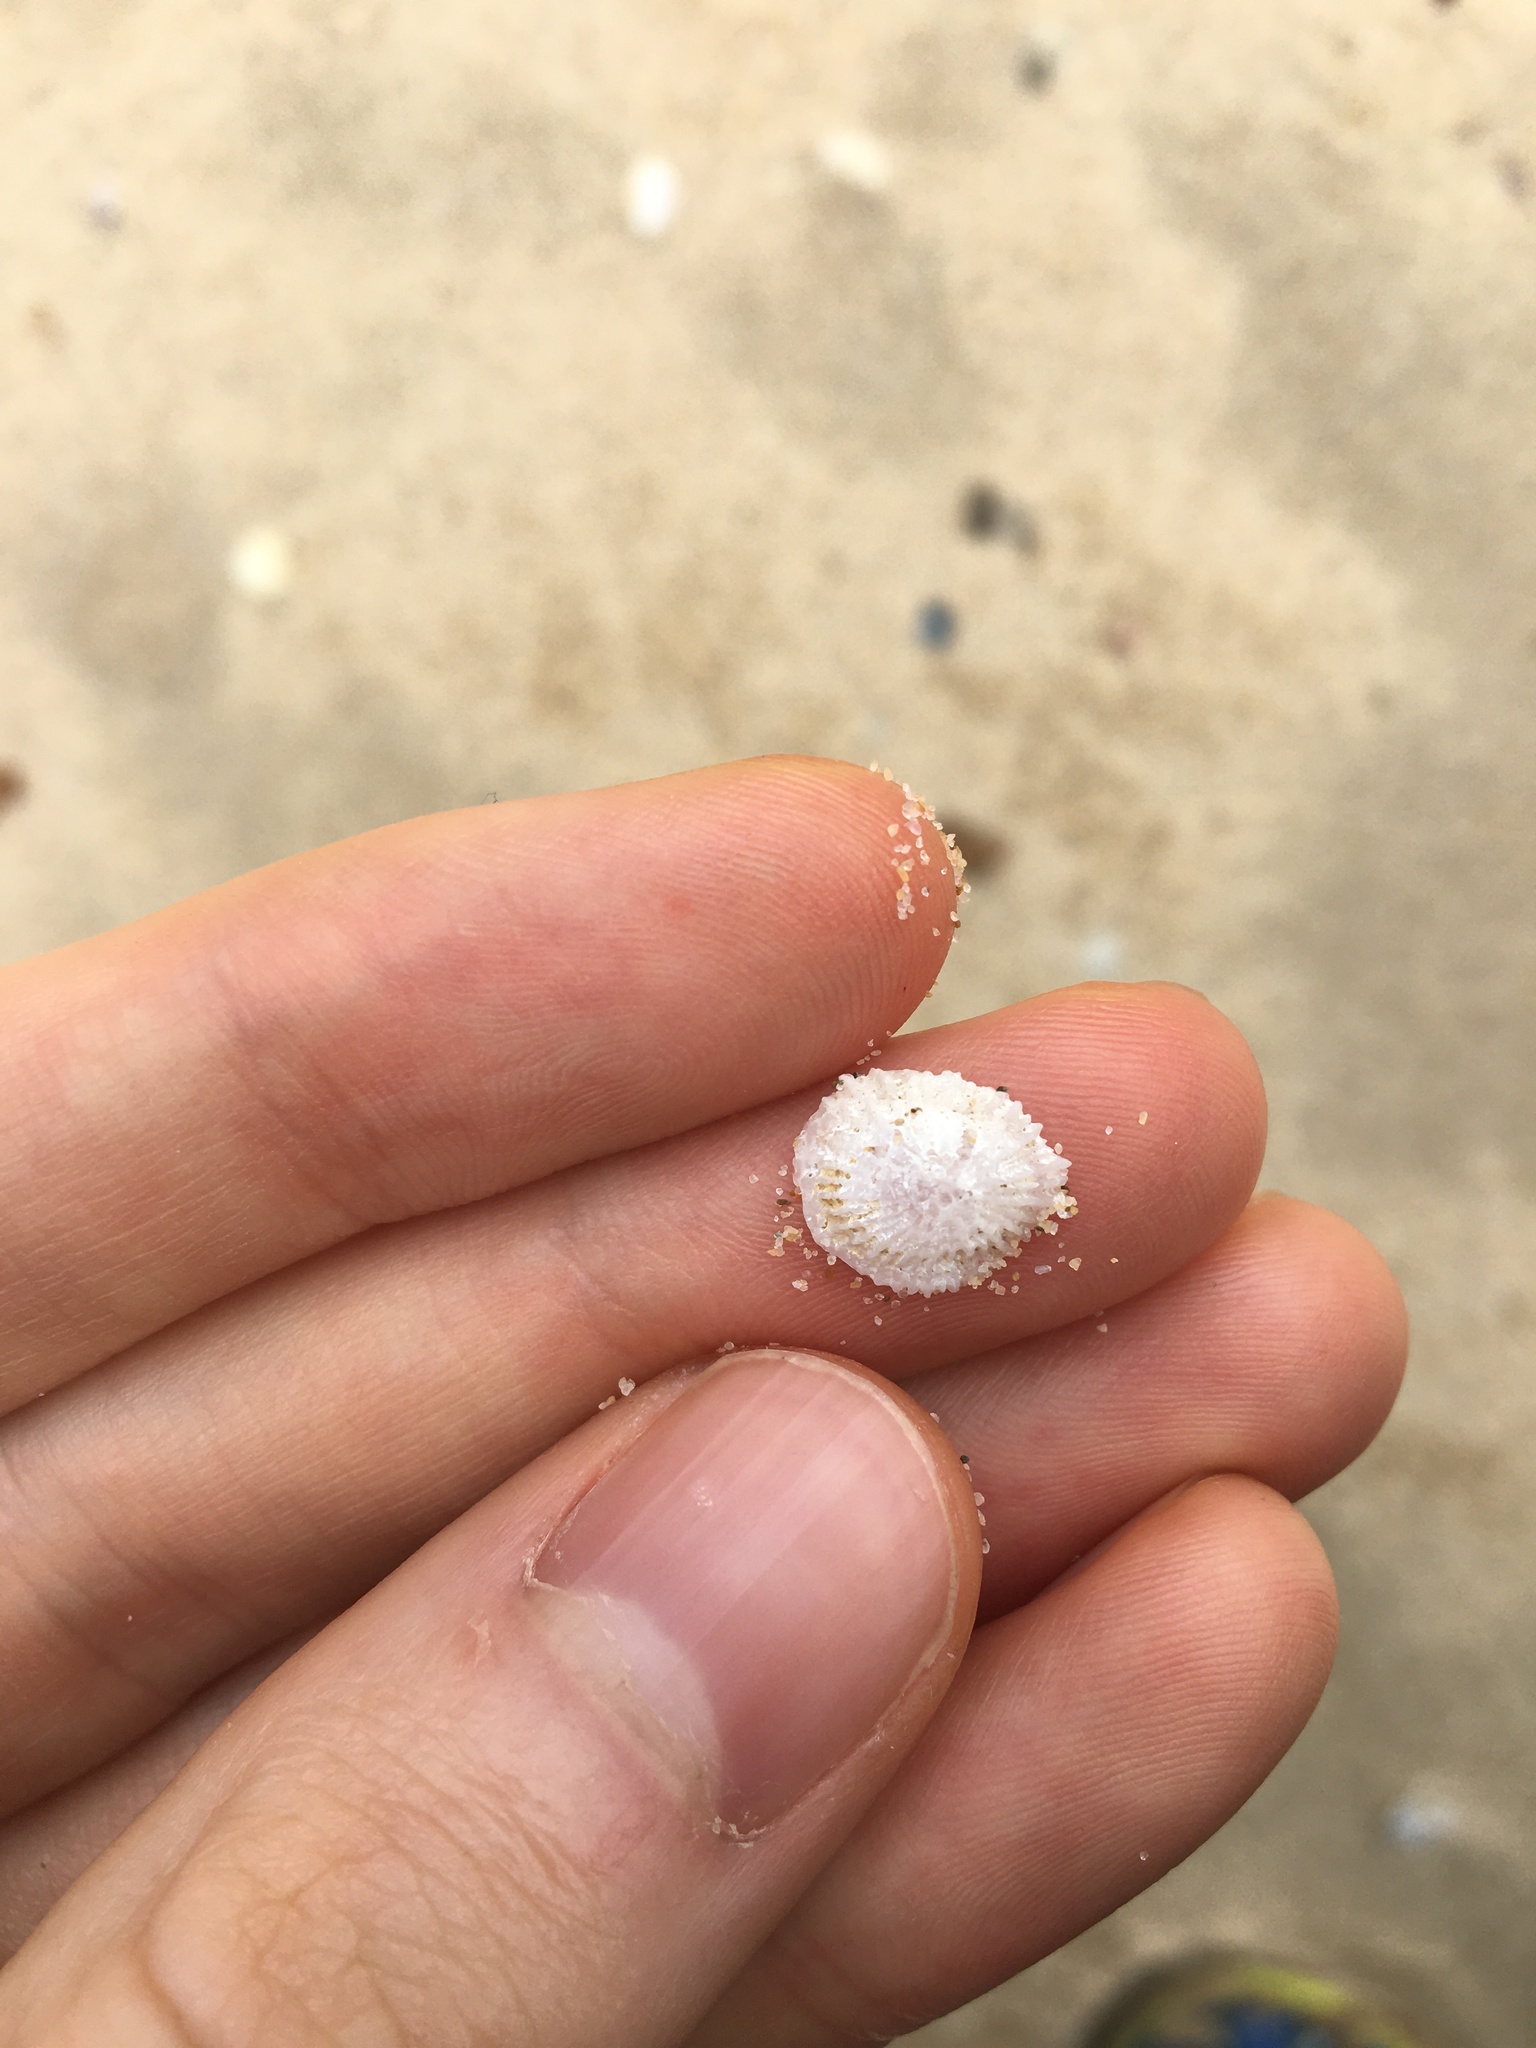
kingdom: Animalia
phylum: Mollusca
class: Gastropoda
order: Ellobiida
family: Trimusculidae
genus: Trimusculus
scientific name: Trimusculus conicus
